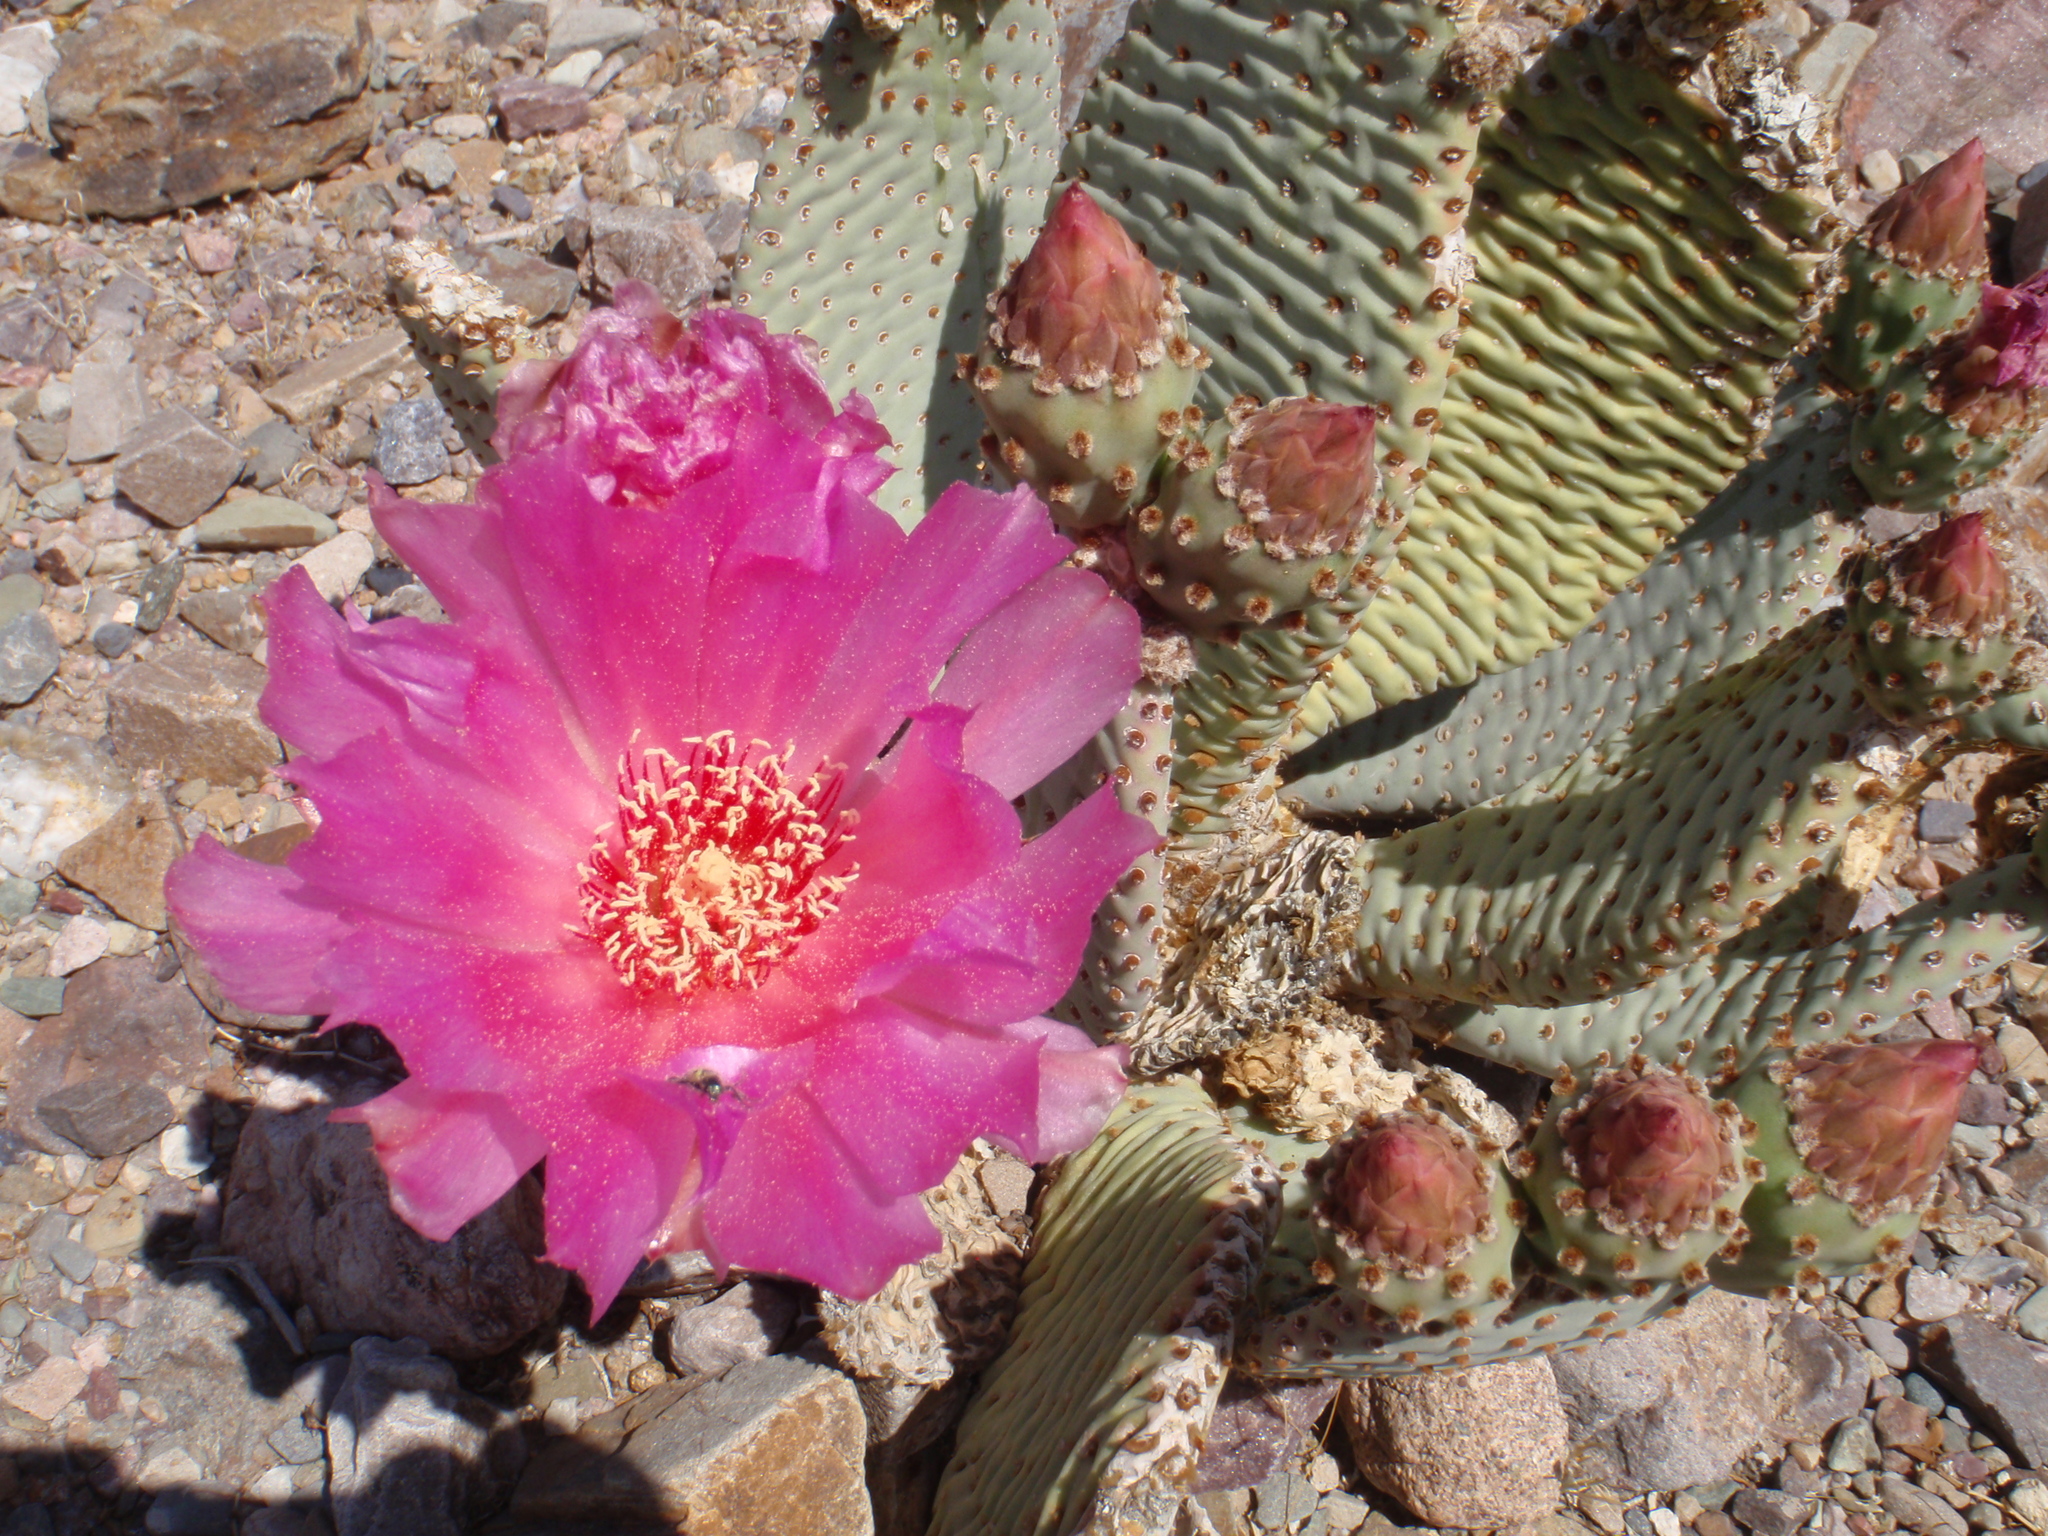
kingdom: Plantae
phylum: Tracheophyta
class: Magnoliopsida
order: Caryophyllales
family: Cactaceae
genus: Opuntia
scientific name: Opuntia basilaris
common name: Beavertail prickly-pear
